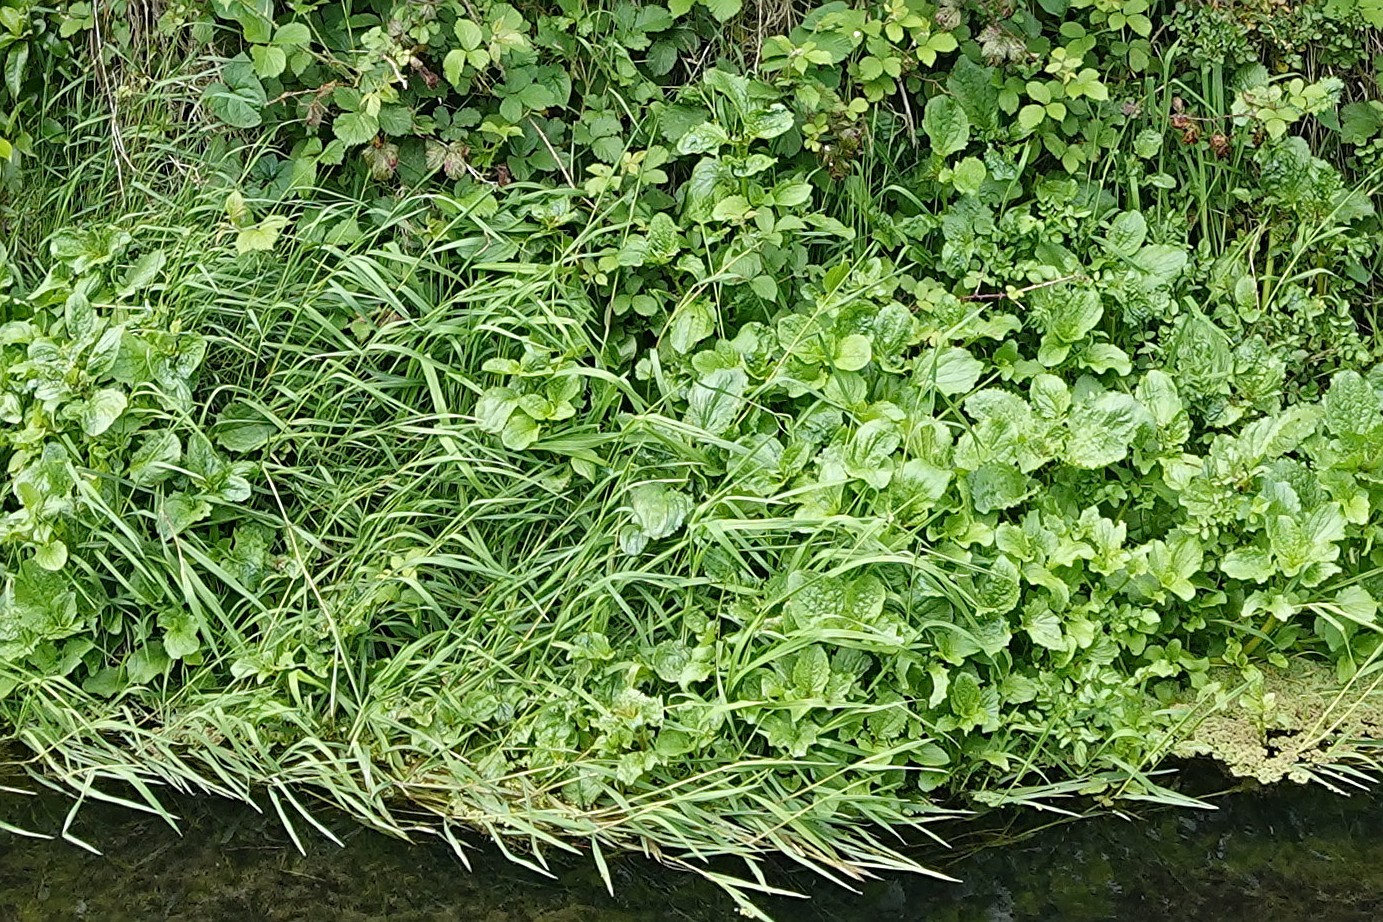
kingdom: Plantae
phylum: Tracheophyta
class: Magnoliopsida
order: Lamiales
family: Phrymaceae
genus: Erythranthe
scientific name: Erythranthe guttata
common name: Monkeyflower
